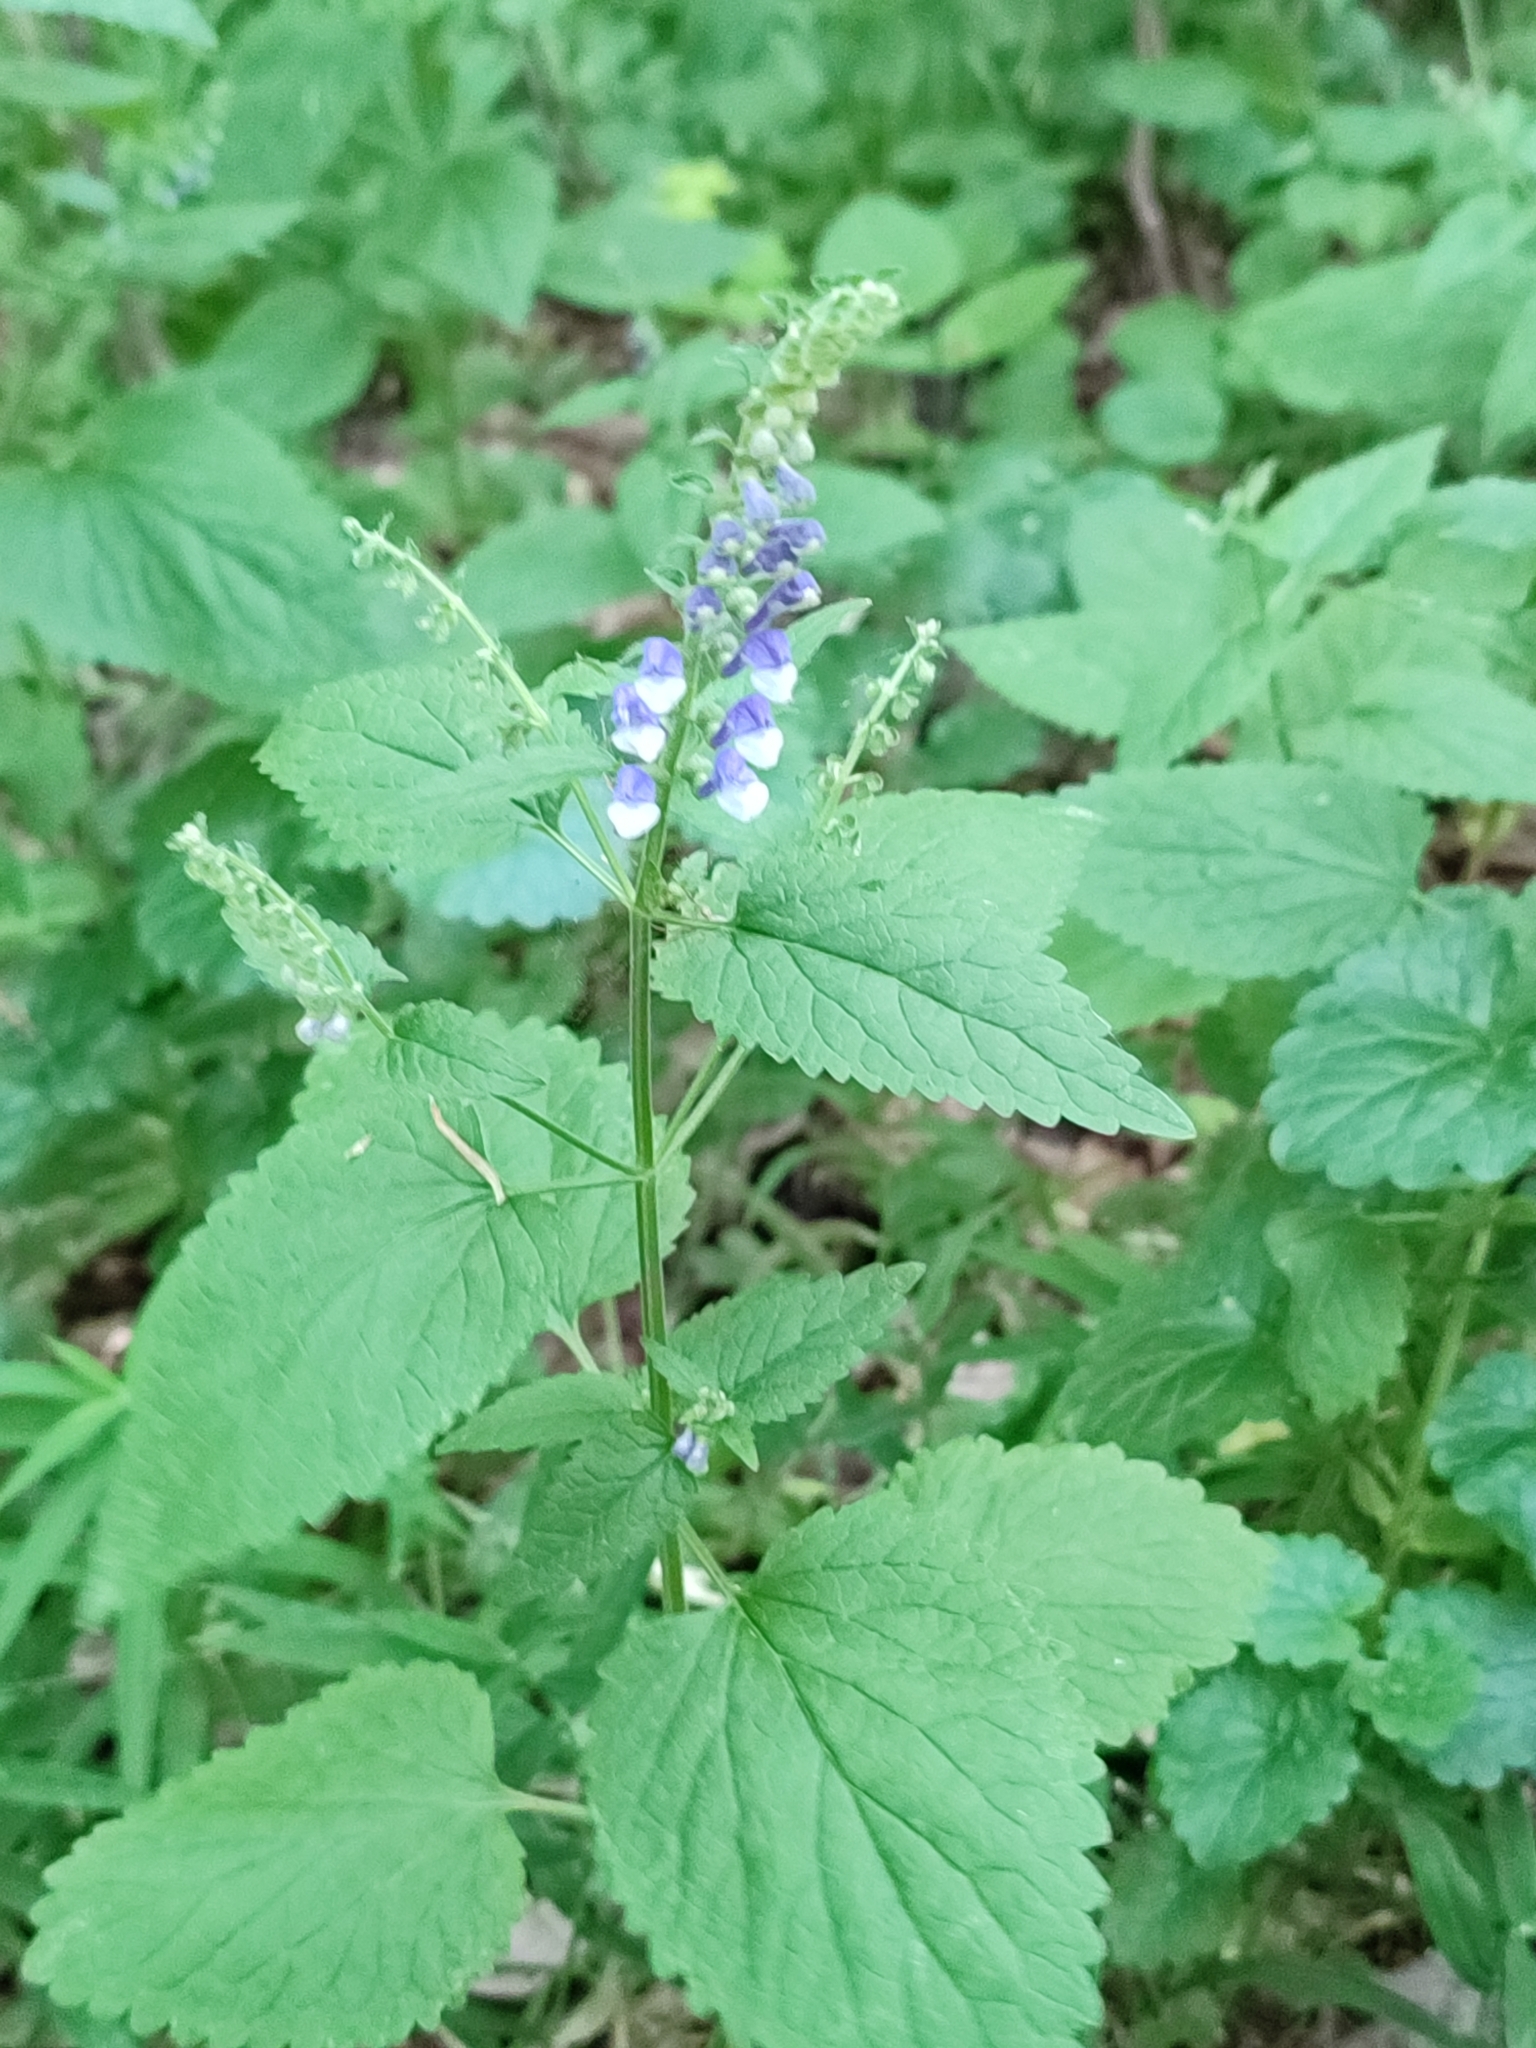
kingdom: Plantae
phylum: Tracheophyta
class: Magnoliopsida
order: Lamiales
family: Lamiaceae
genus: Scutellaria
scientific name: Scutellaria altissima
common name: Somerset skullcap
